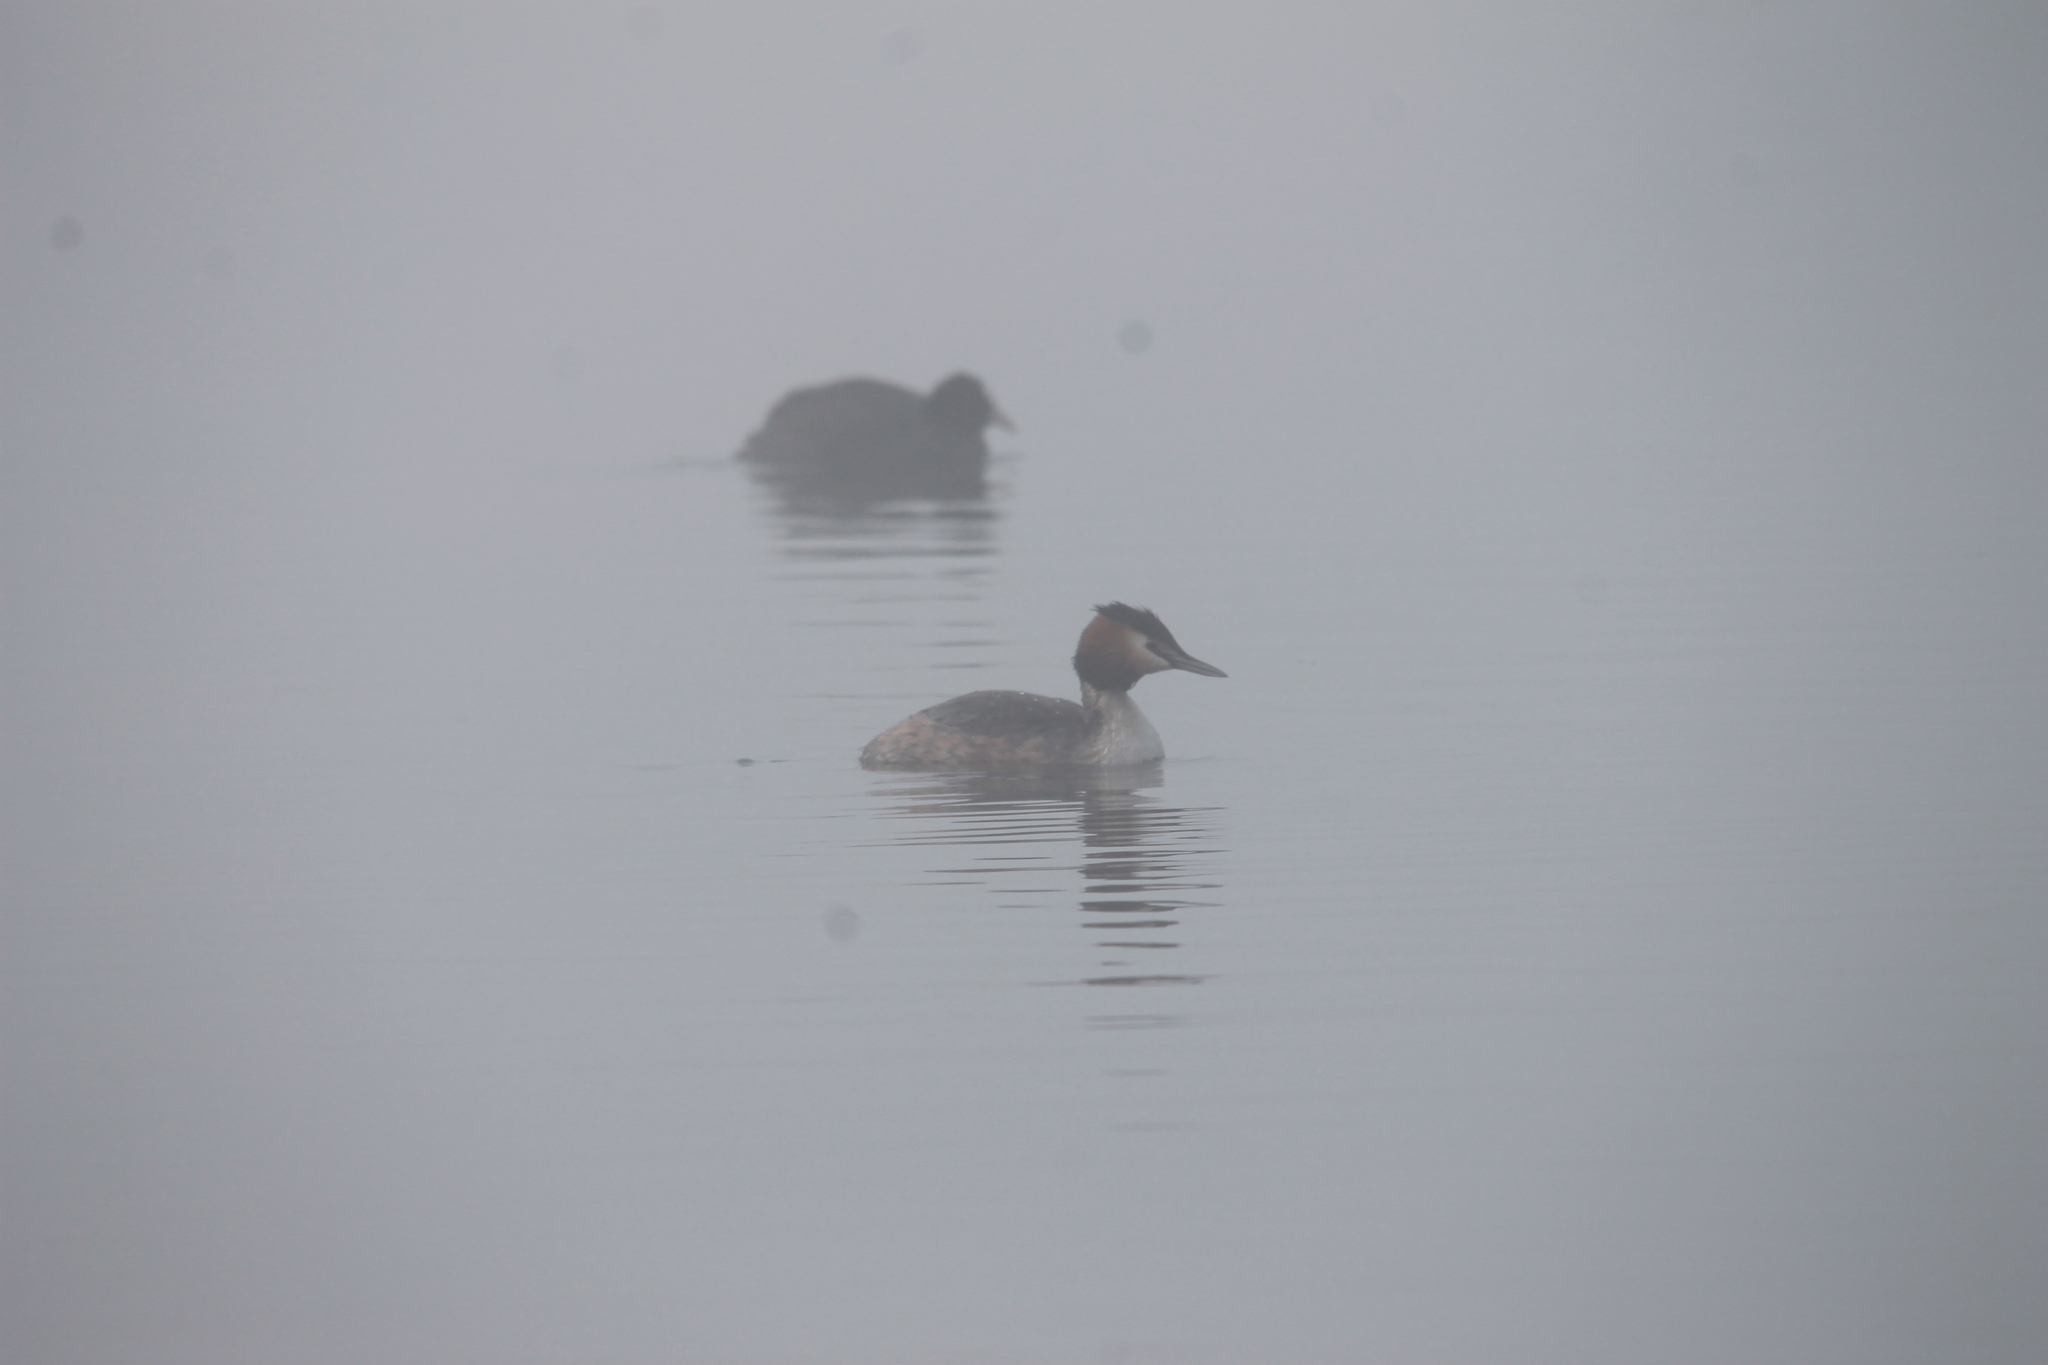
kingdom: Animalia
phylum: Chordata
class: Aves
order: Podicipediformes
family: Podicipedidae
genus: Podiceps
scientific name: Podiceps cristatus
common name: Great crested grebe
